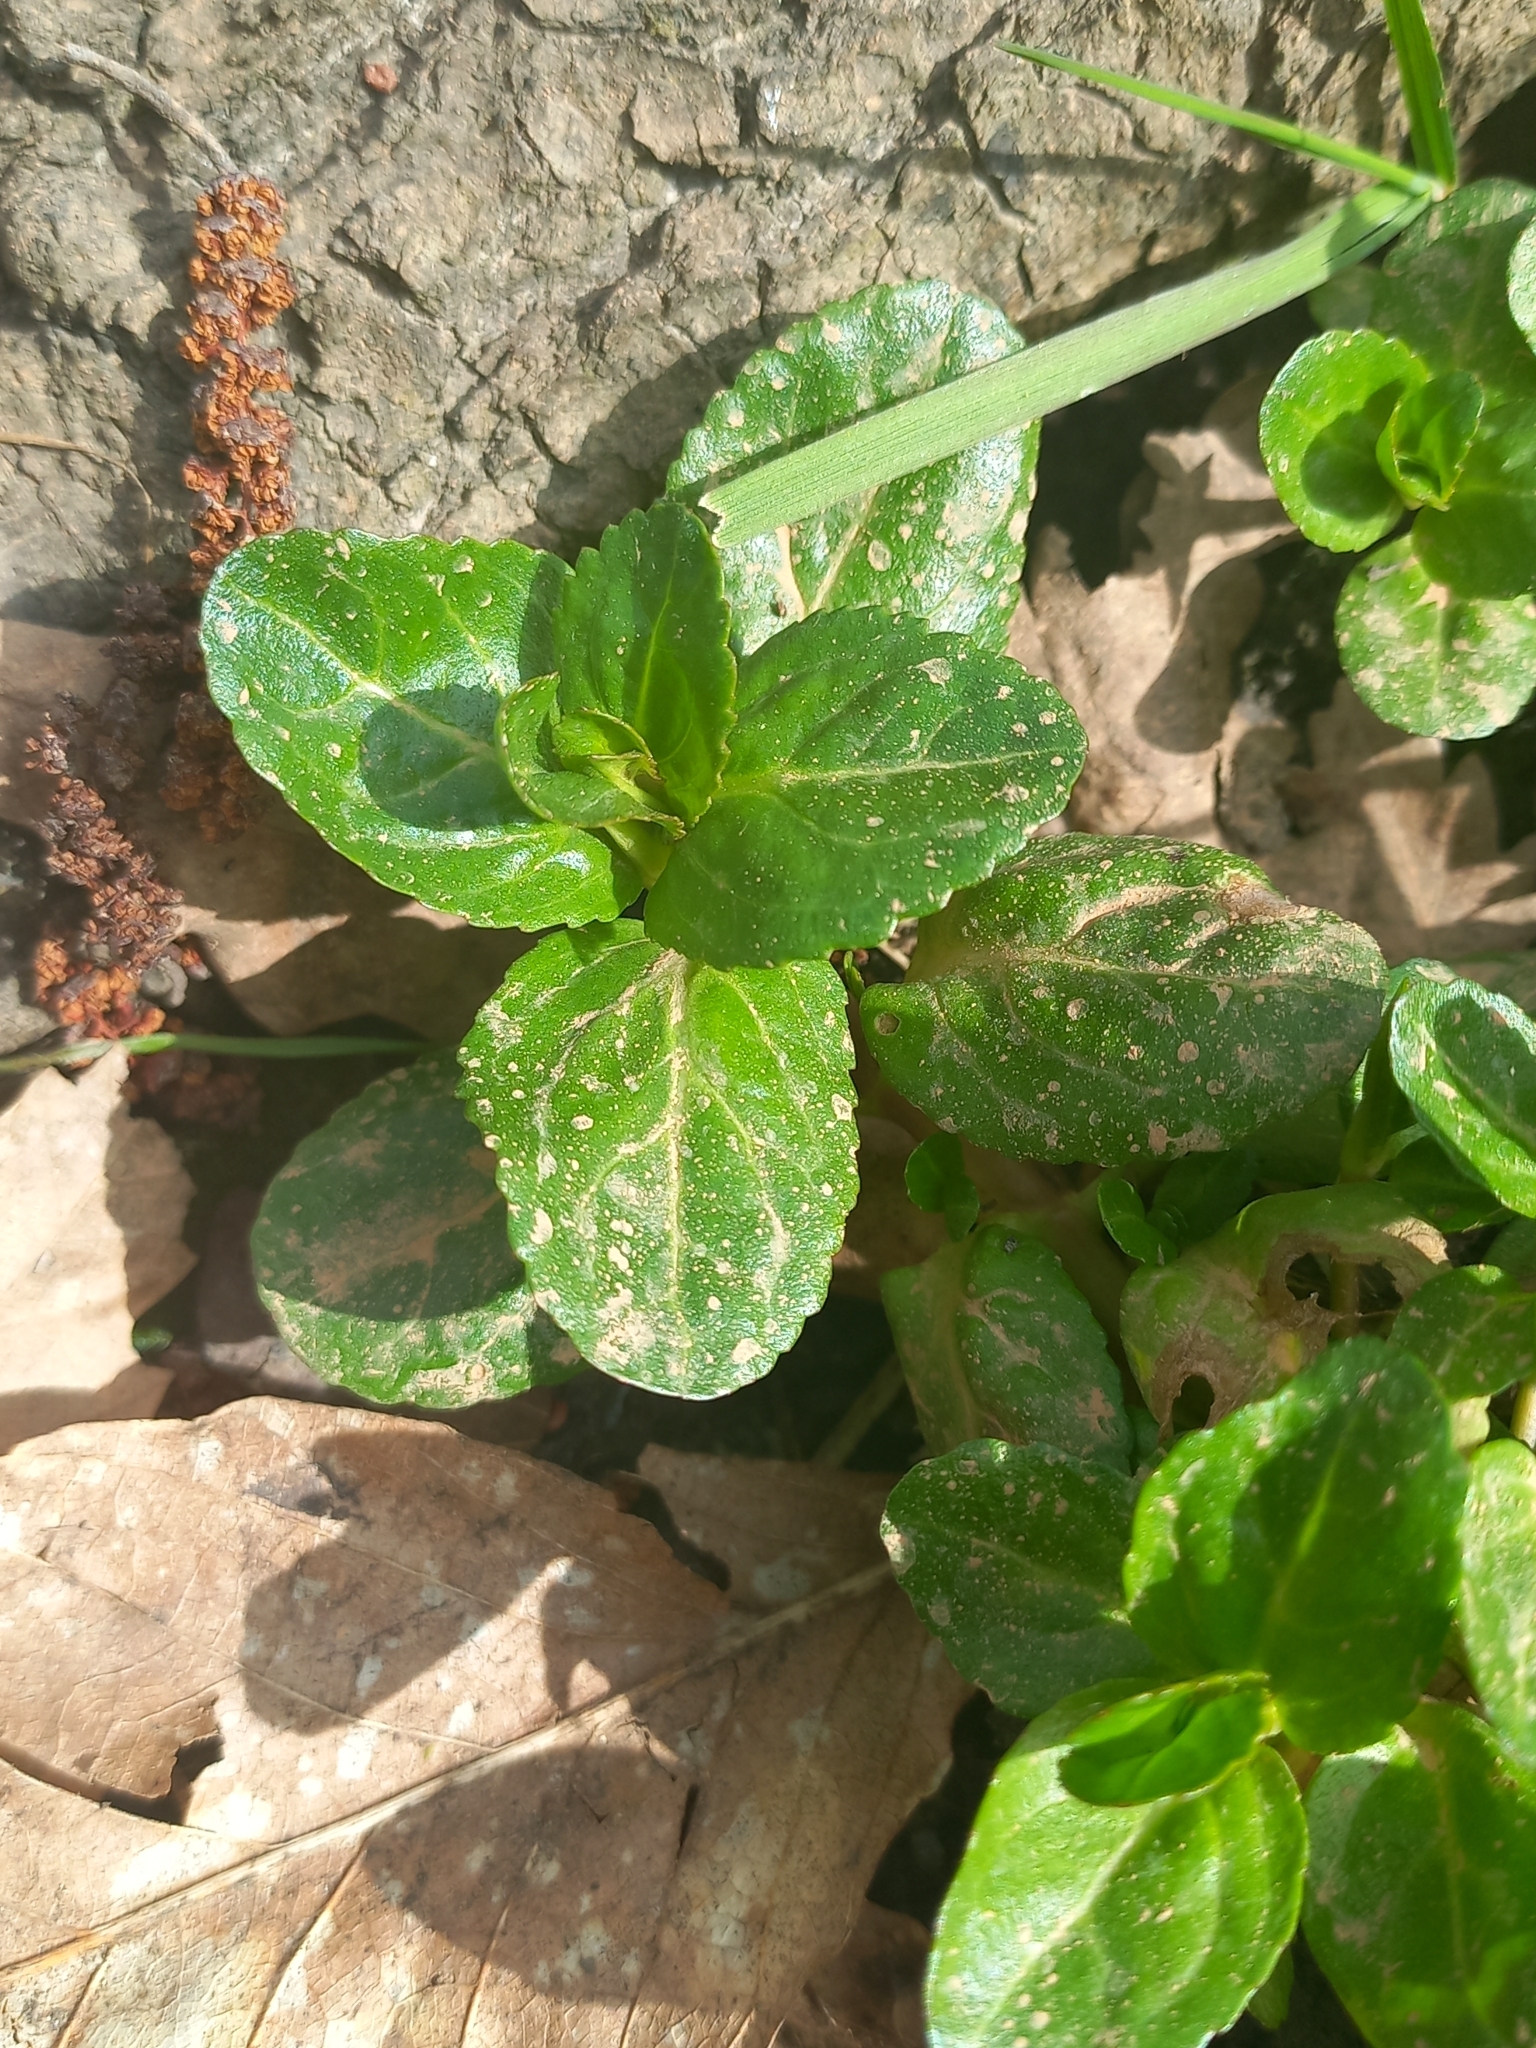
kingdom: Plantae
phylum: Tracheophyta
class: Magnoliopsida
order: Lamiales
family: Plantaginaceae
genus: Veronica
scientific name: Veronica beccabunga
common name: Brooklime
